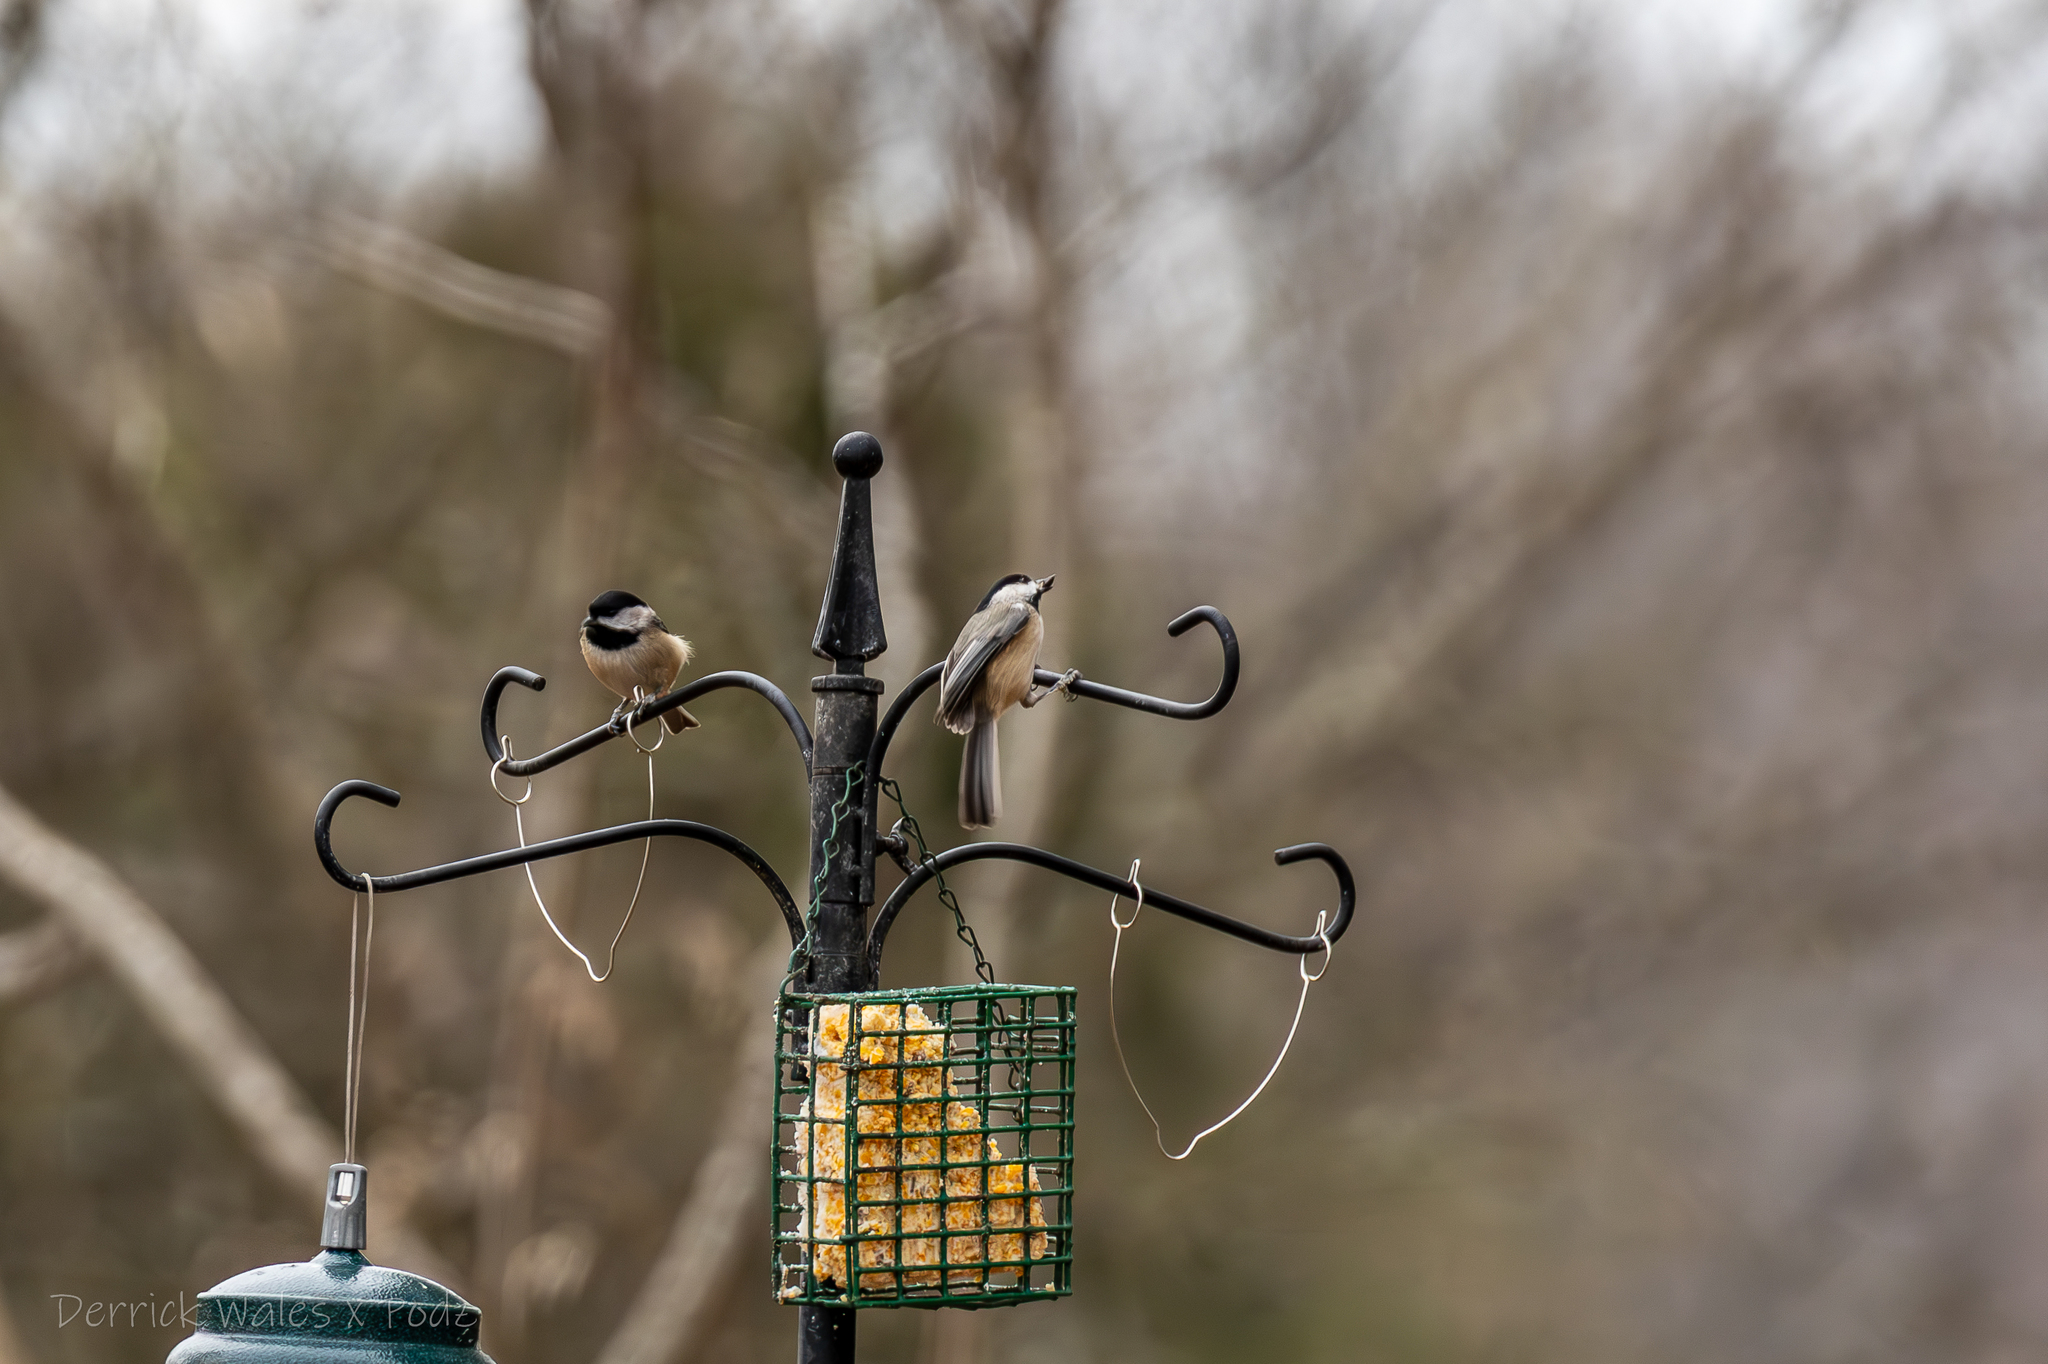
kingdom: Animalia
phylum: Chordata
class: Aves
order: Passeriformes
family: Paridae
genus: Poecile
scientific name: Poecile carolinensis
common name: Carolina chickadee
